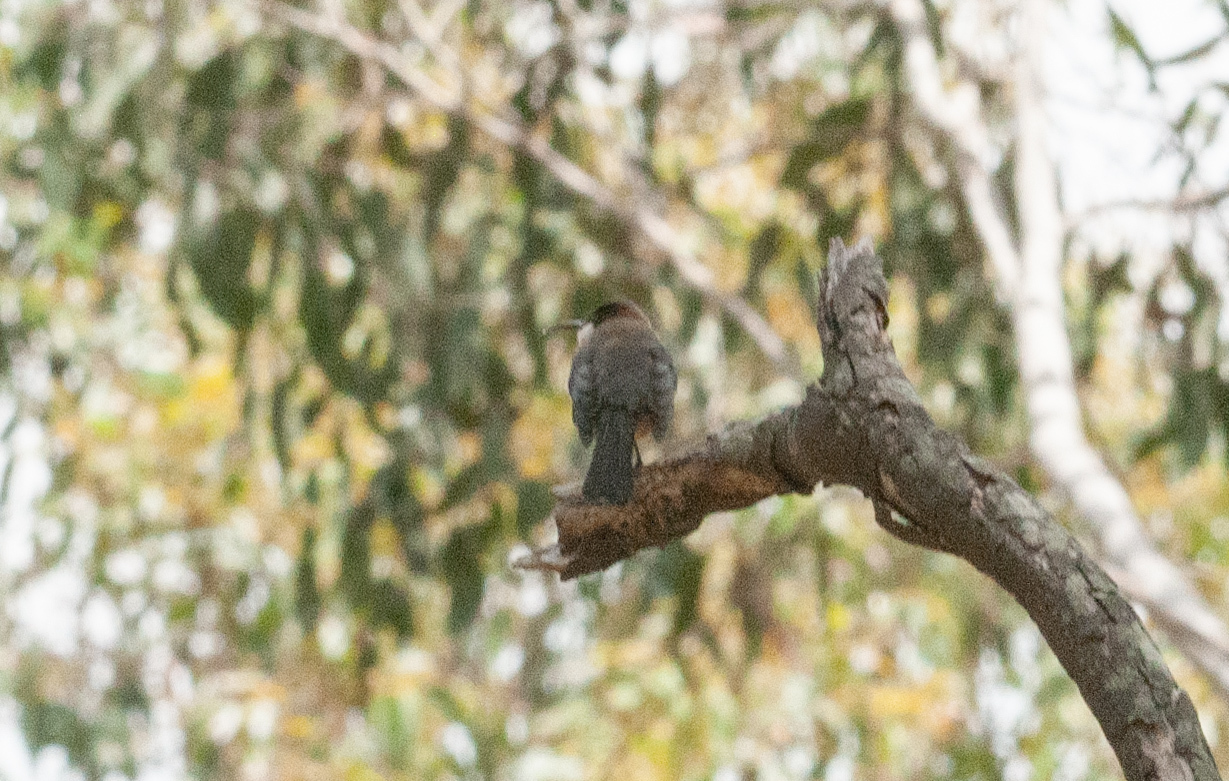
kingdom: Animalia
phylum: Chordata
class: Aves
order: Passeriformes
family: Meliphagidae
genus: Acanthorhynchus
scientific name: Acanthorhynchus tenuirostris
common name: Eastern spinebill
